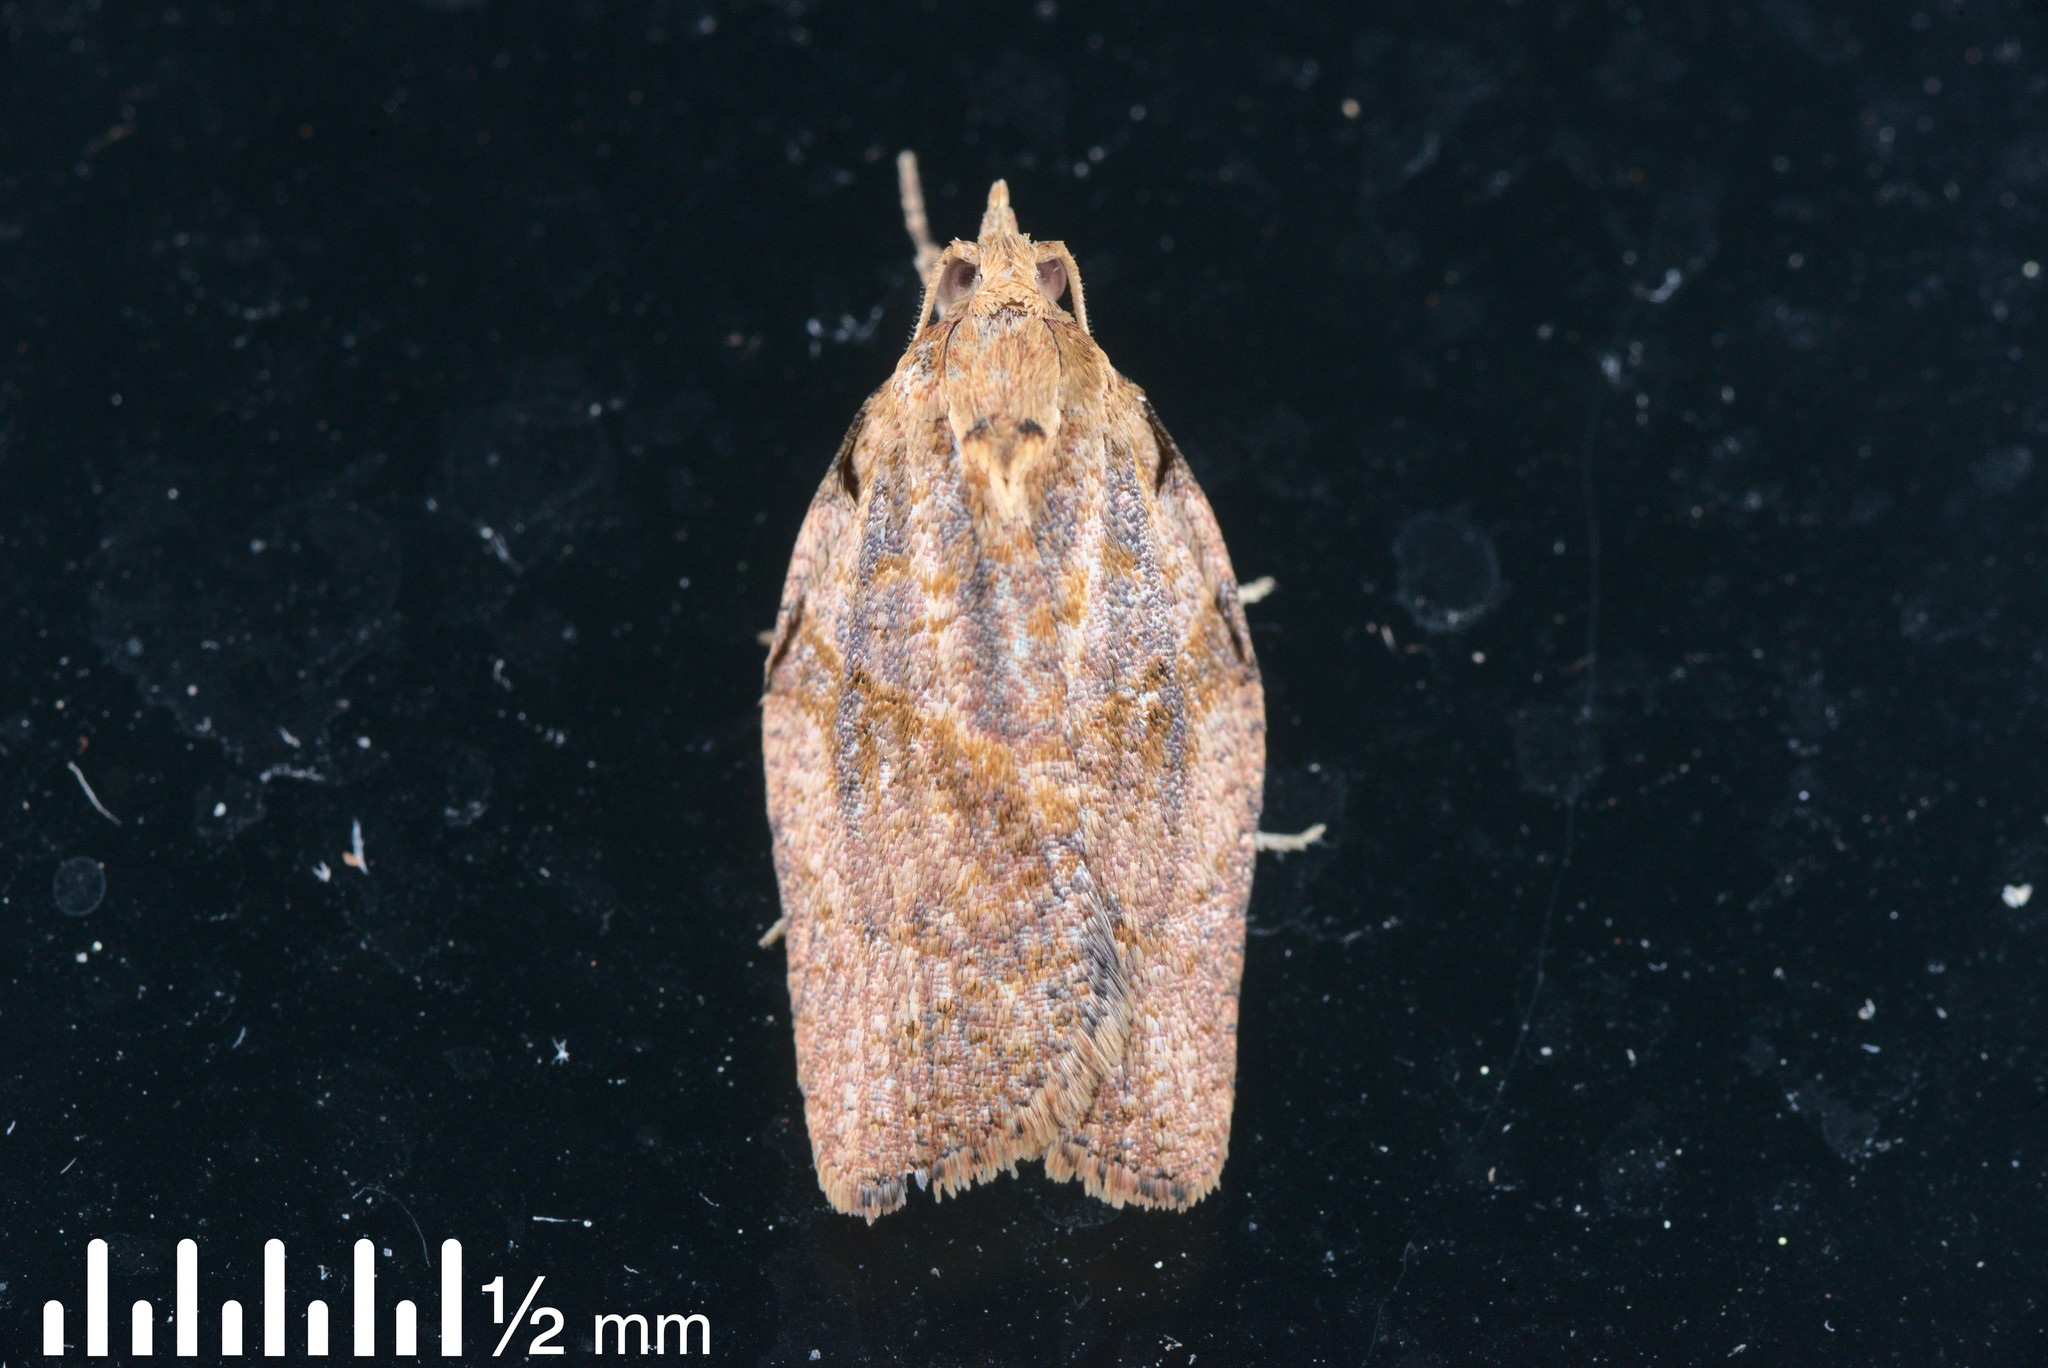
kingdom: Animalia
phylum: Arthropoda
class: Insecta
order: Lepidoptera
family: Tortricidae
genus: Epiphyas
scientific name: Epiphyas postvittana
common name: Light brown apple moth
